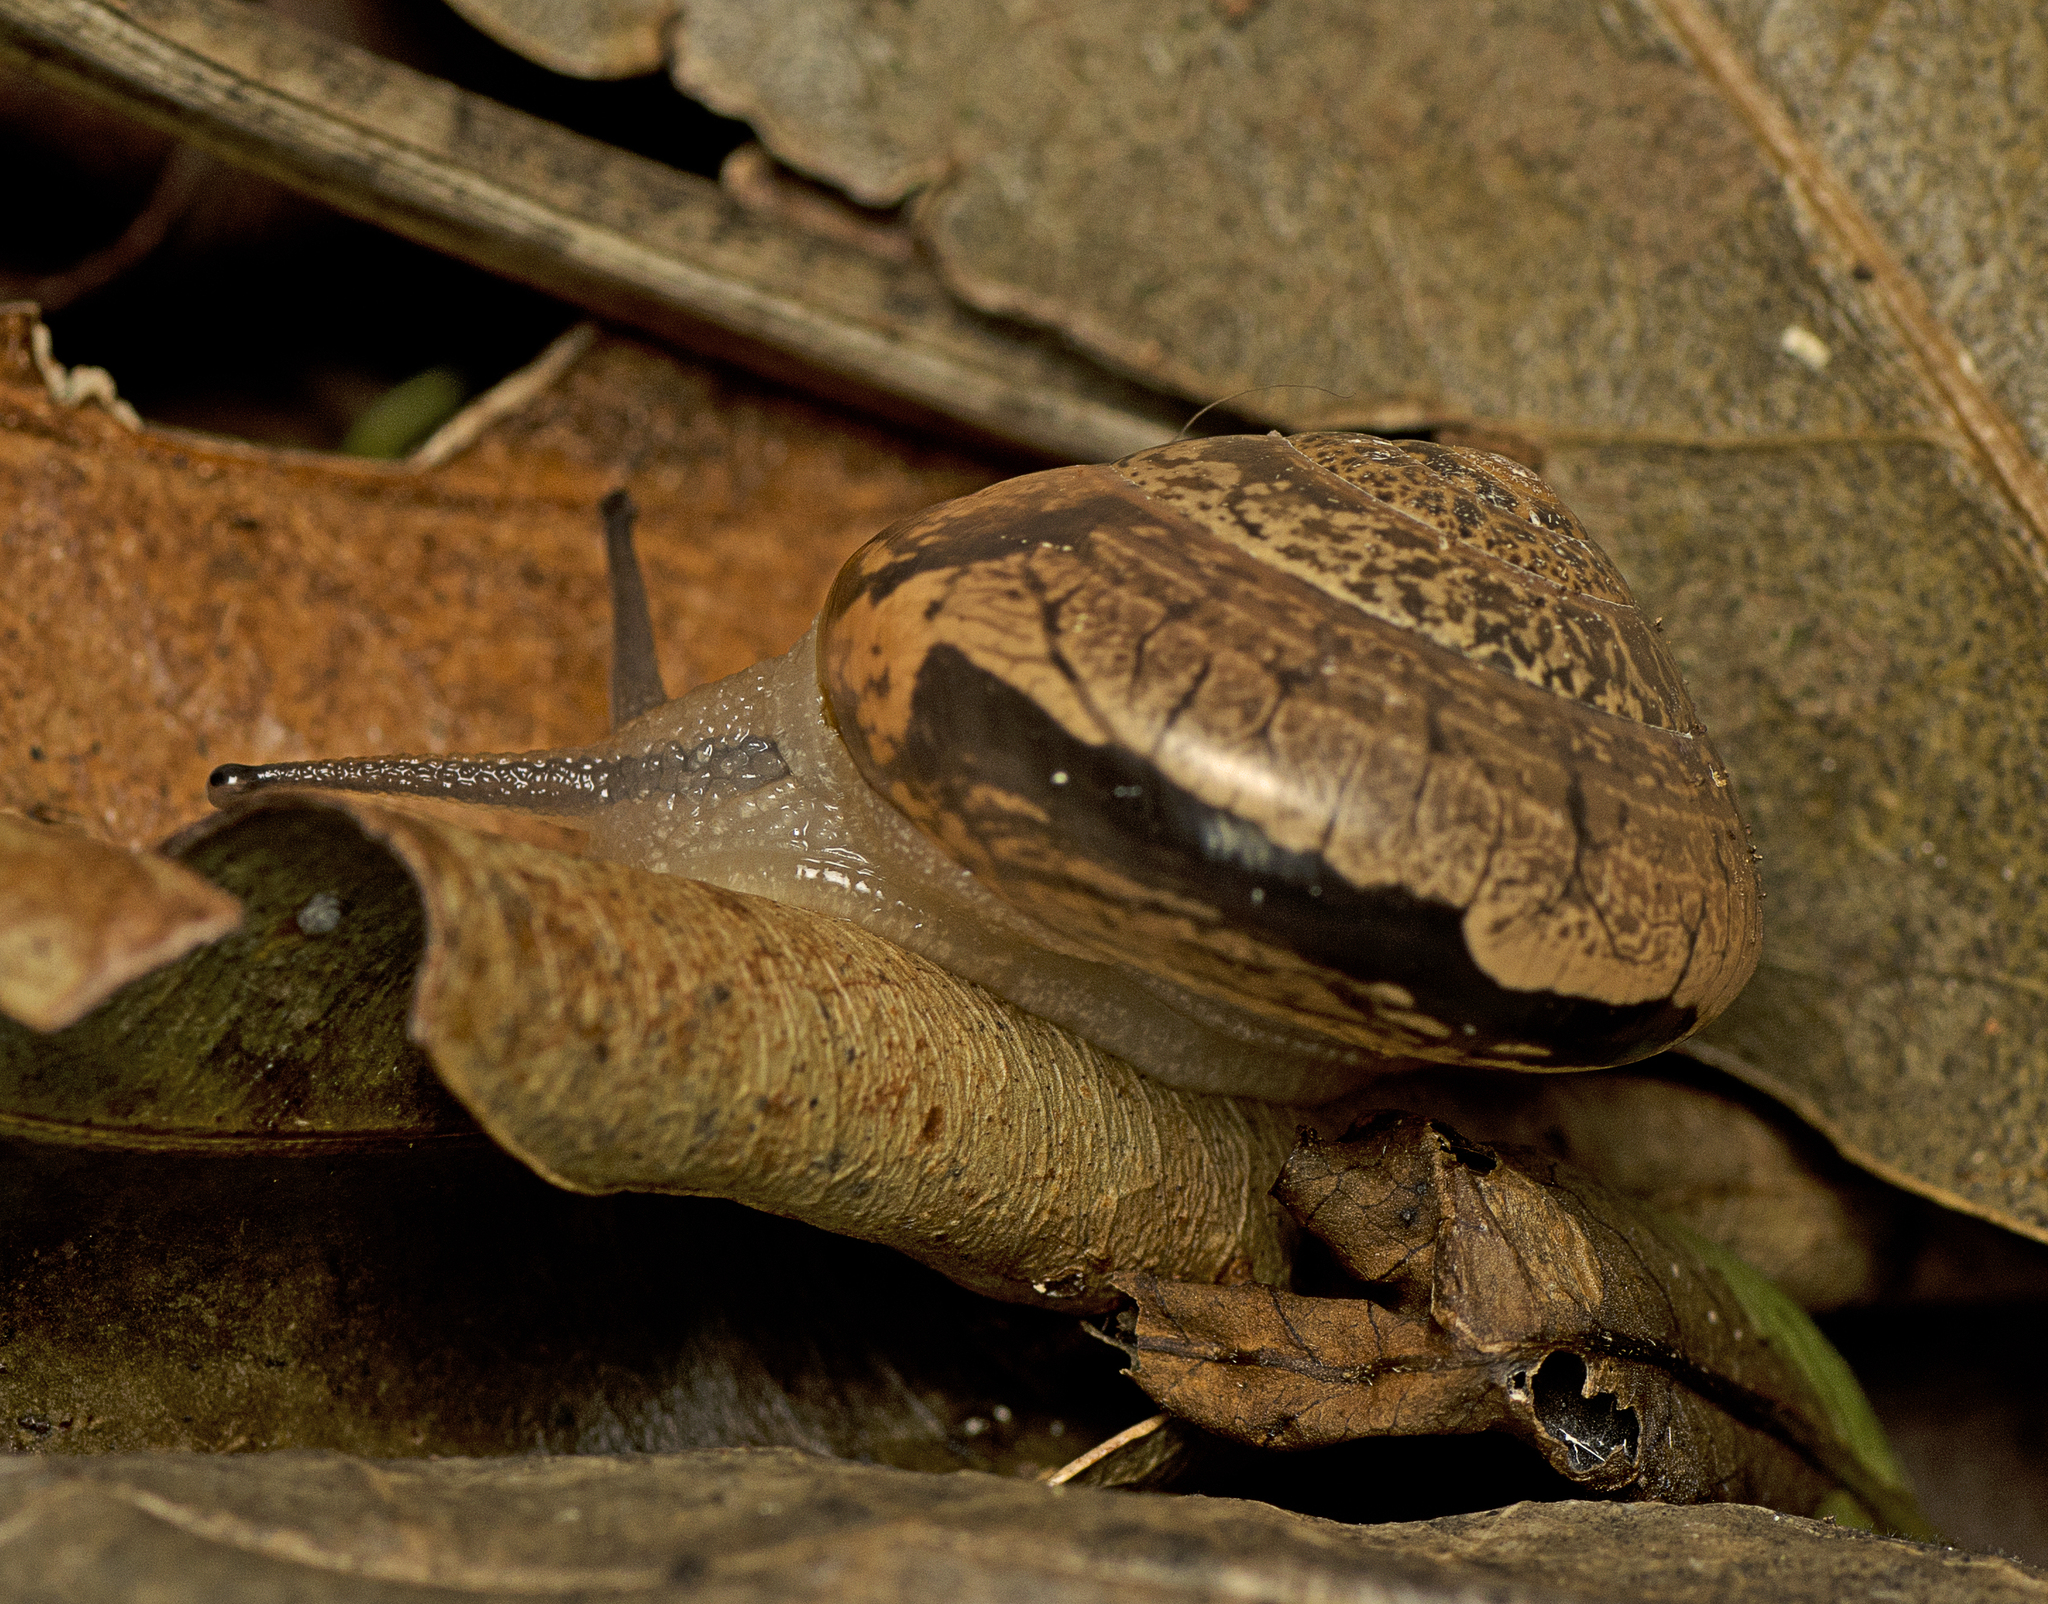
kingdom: Animalia
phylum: Mollusca
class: Gastropoda
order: Stylommatophora
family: Helicarionidae
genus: Nitor
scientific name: Nitor pudibundus
